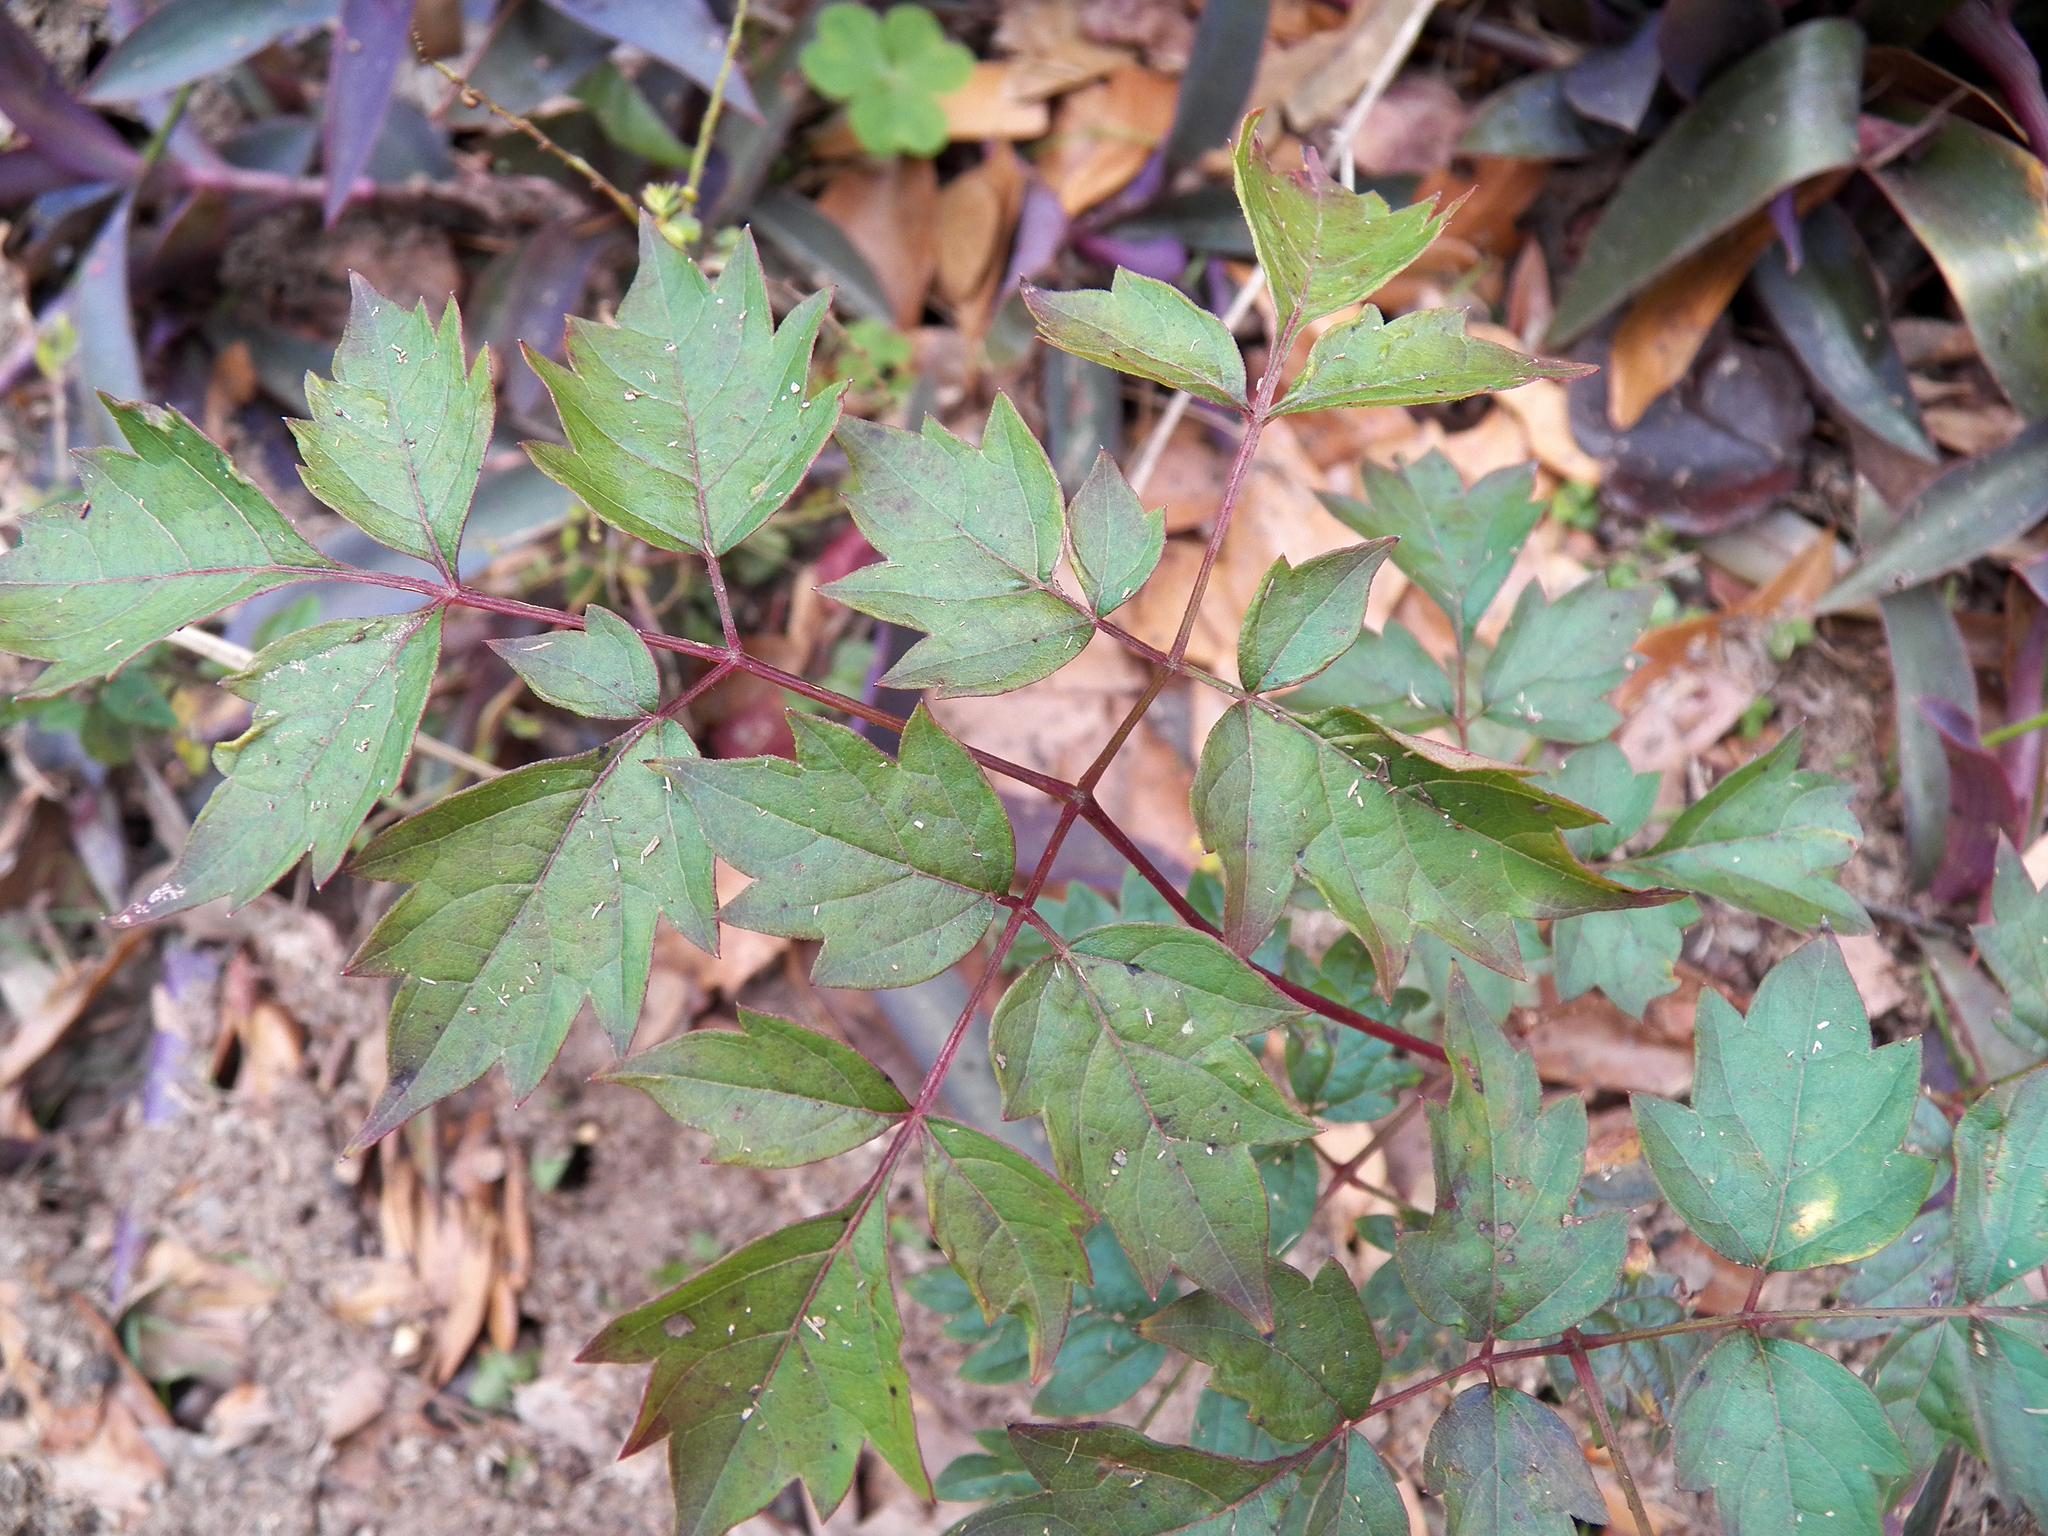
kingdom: Plantae
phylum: Tracheophyta
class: Magnoliopsida
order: Vitales
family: Vitaceae
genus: Nekemias
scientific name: Nekemias arborea
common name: Peppervine
